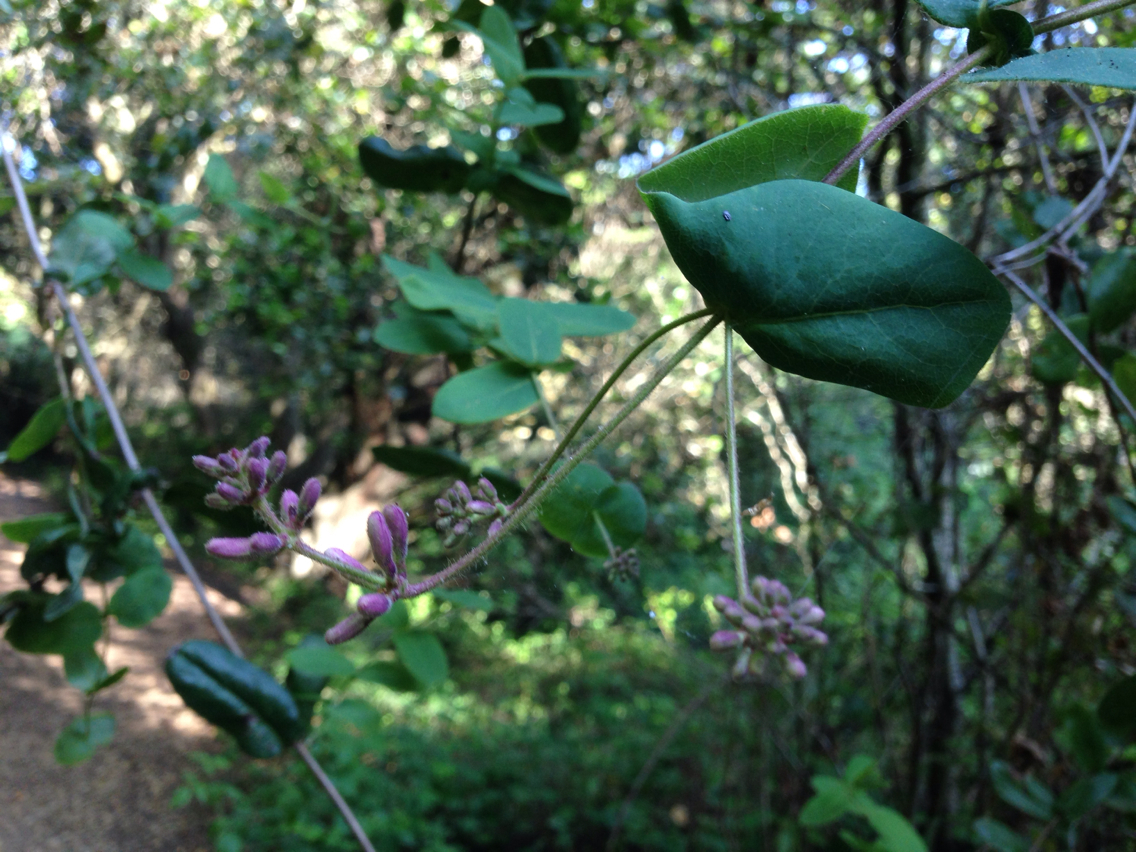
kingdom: Plantae
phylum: Tracheophyta
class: Magnoliopsida
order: Dipsacales
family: Caprifoliaceae
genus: Lonicera
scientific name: Lonicera hispidula
